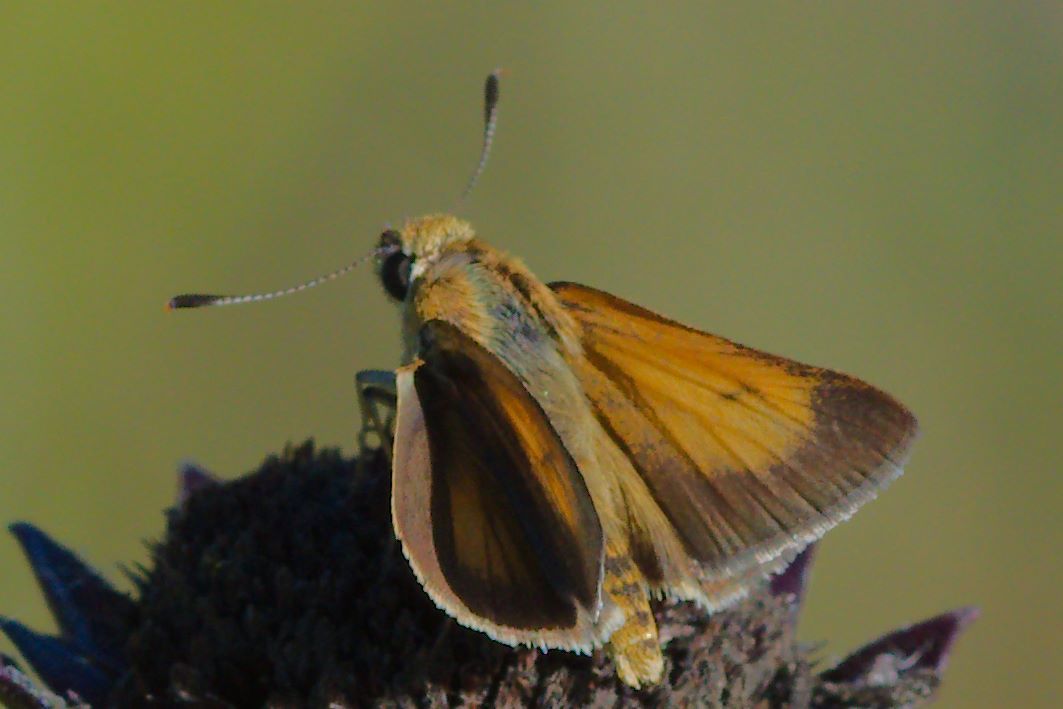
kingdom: Animalia
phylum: Arthropoda
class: Insecta
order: Lepidoptera
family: Hesperiidae
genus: Atrytone
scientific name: Atrytone arogos
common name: Arogos skipper
